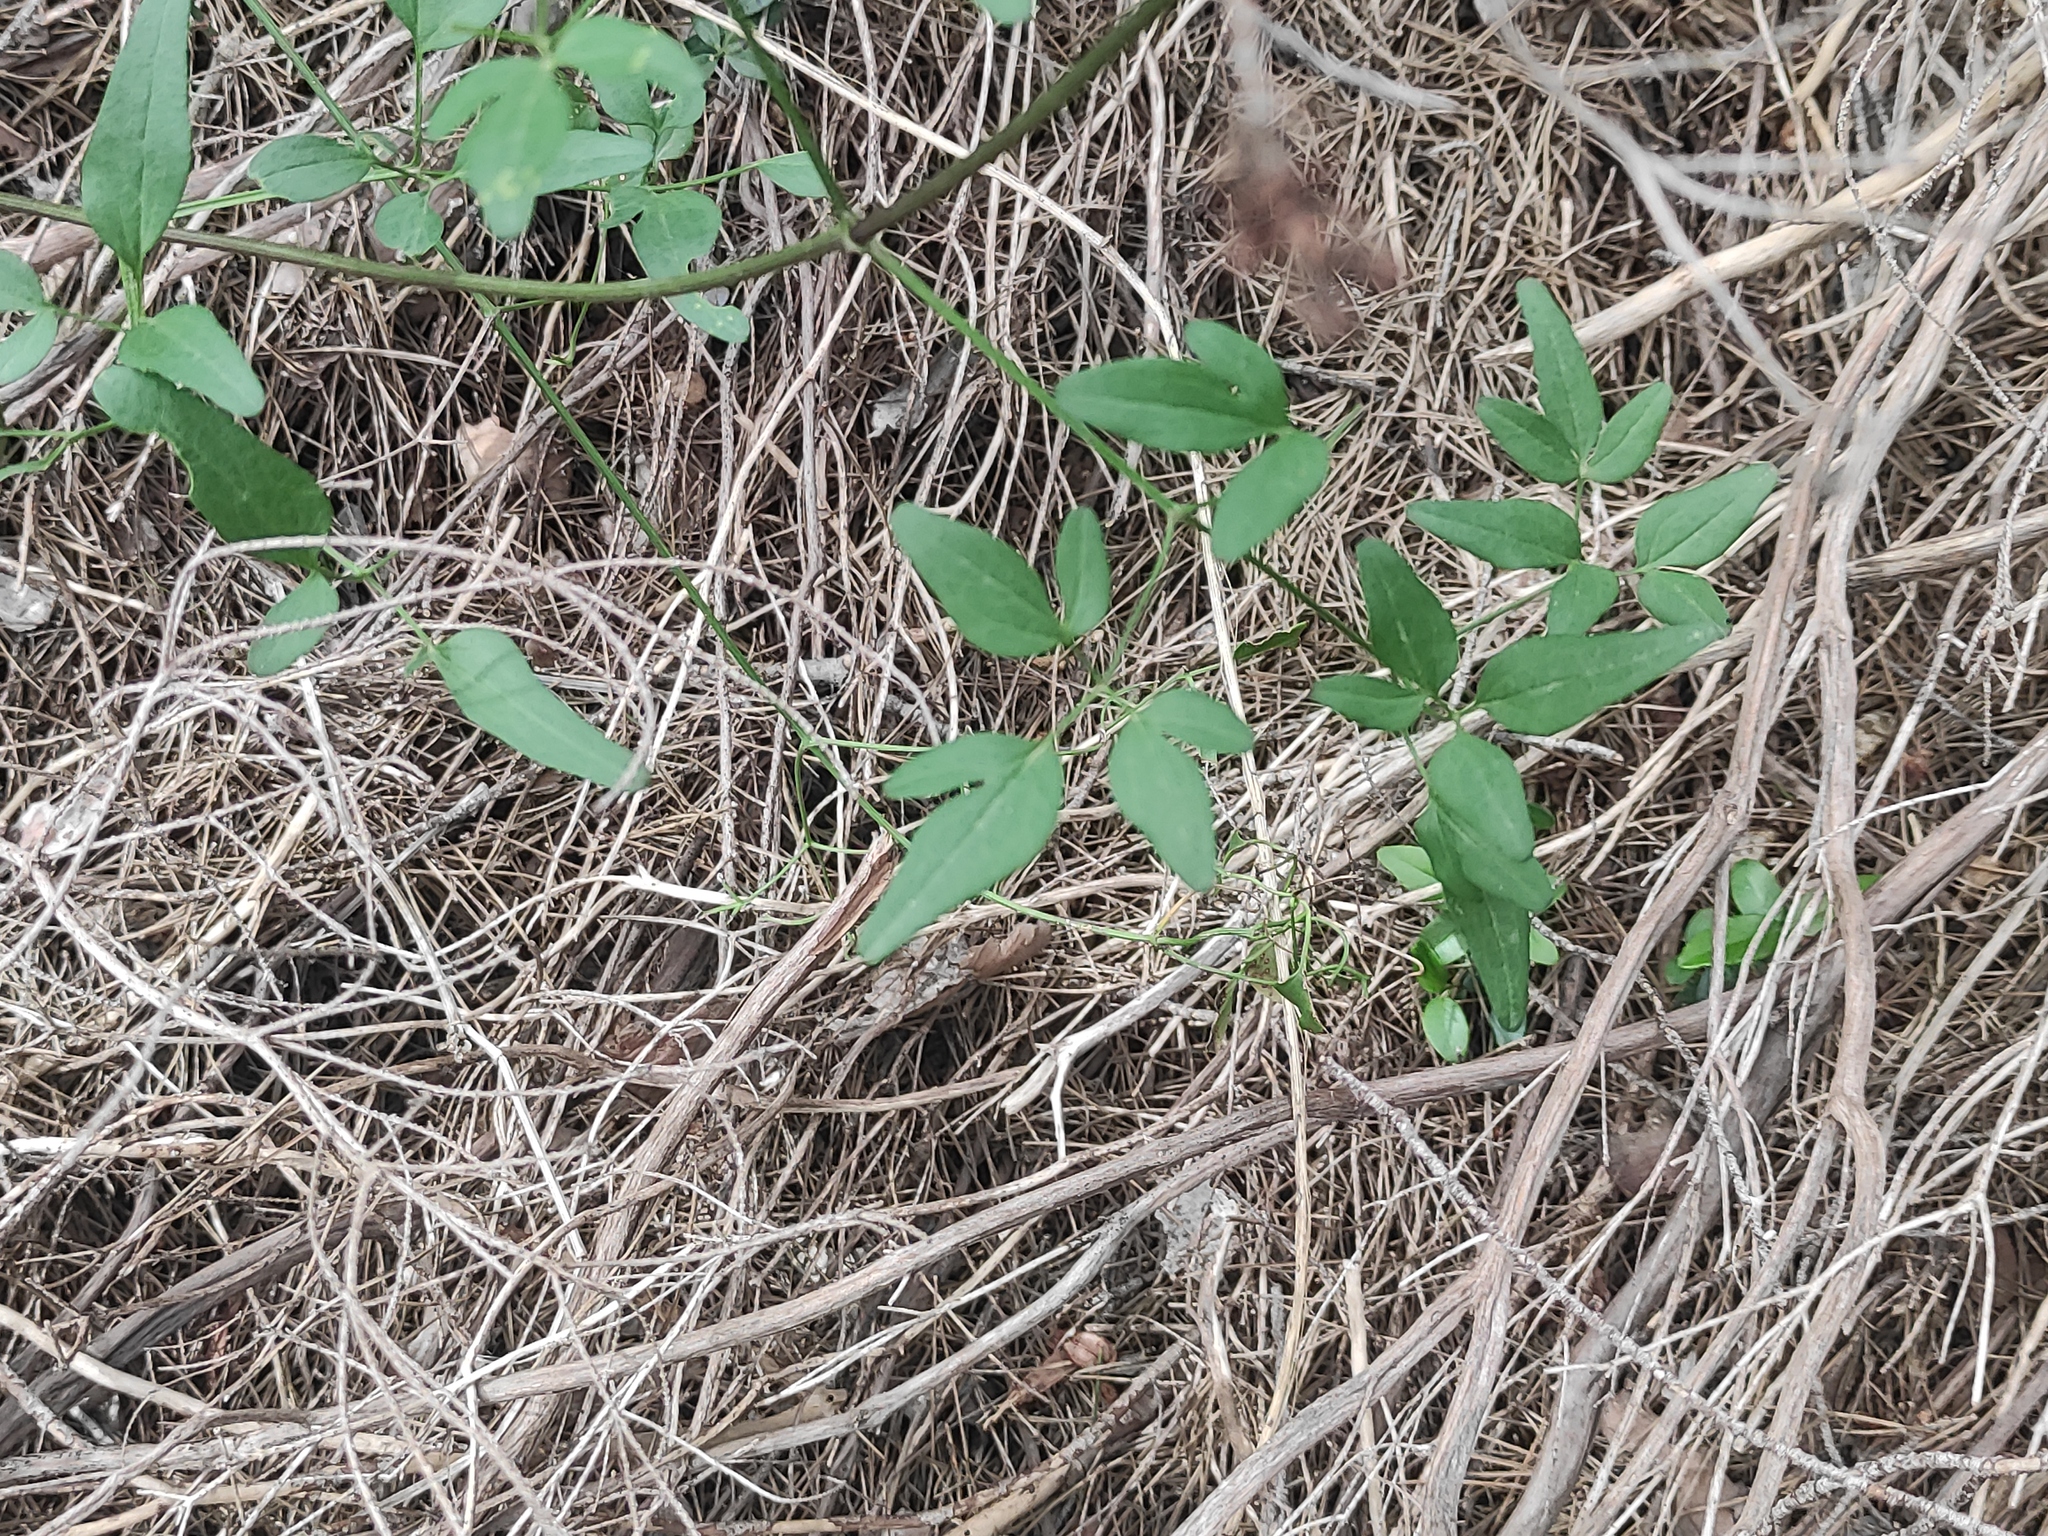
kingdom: Plantae
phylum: Tracheophyta
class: Magnoliopsida
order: Ranunculales
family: Ranunculaceae
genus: Clematis
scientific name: Clematis flammula
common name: Virgin's-bower
